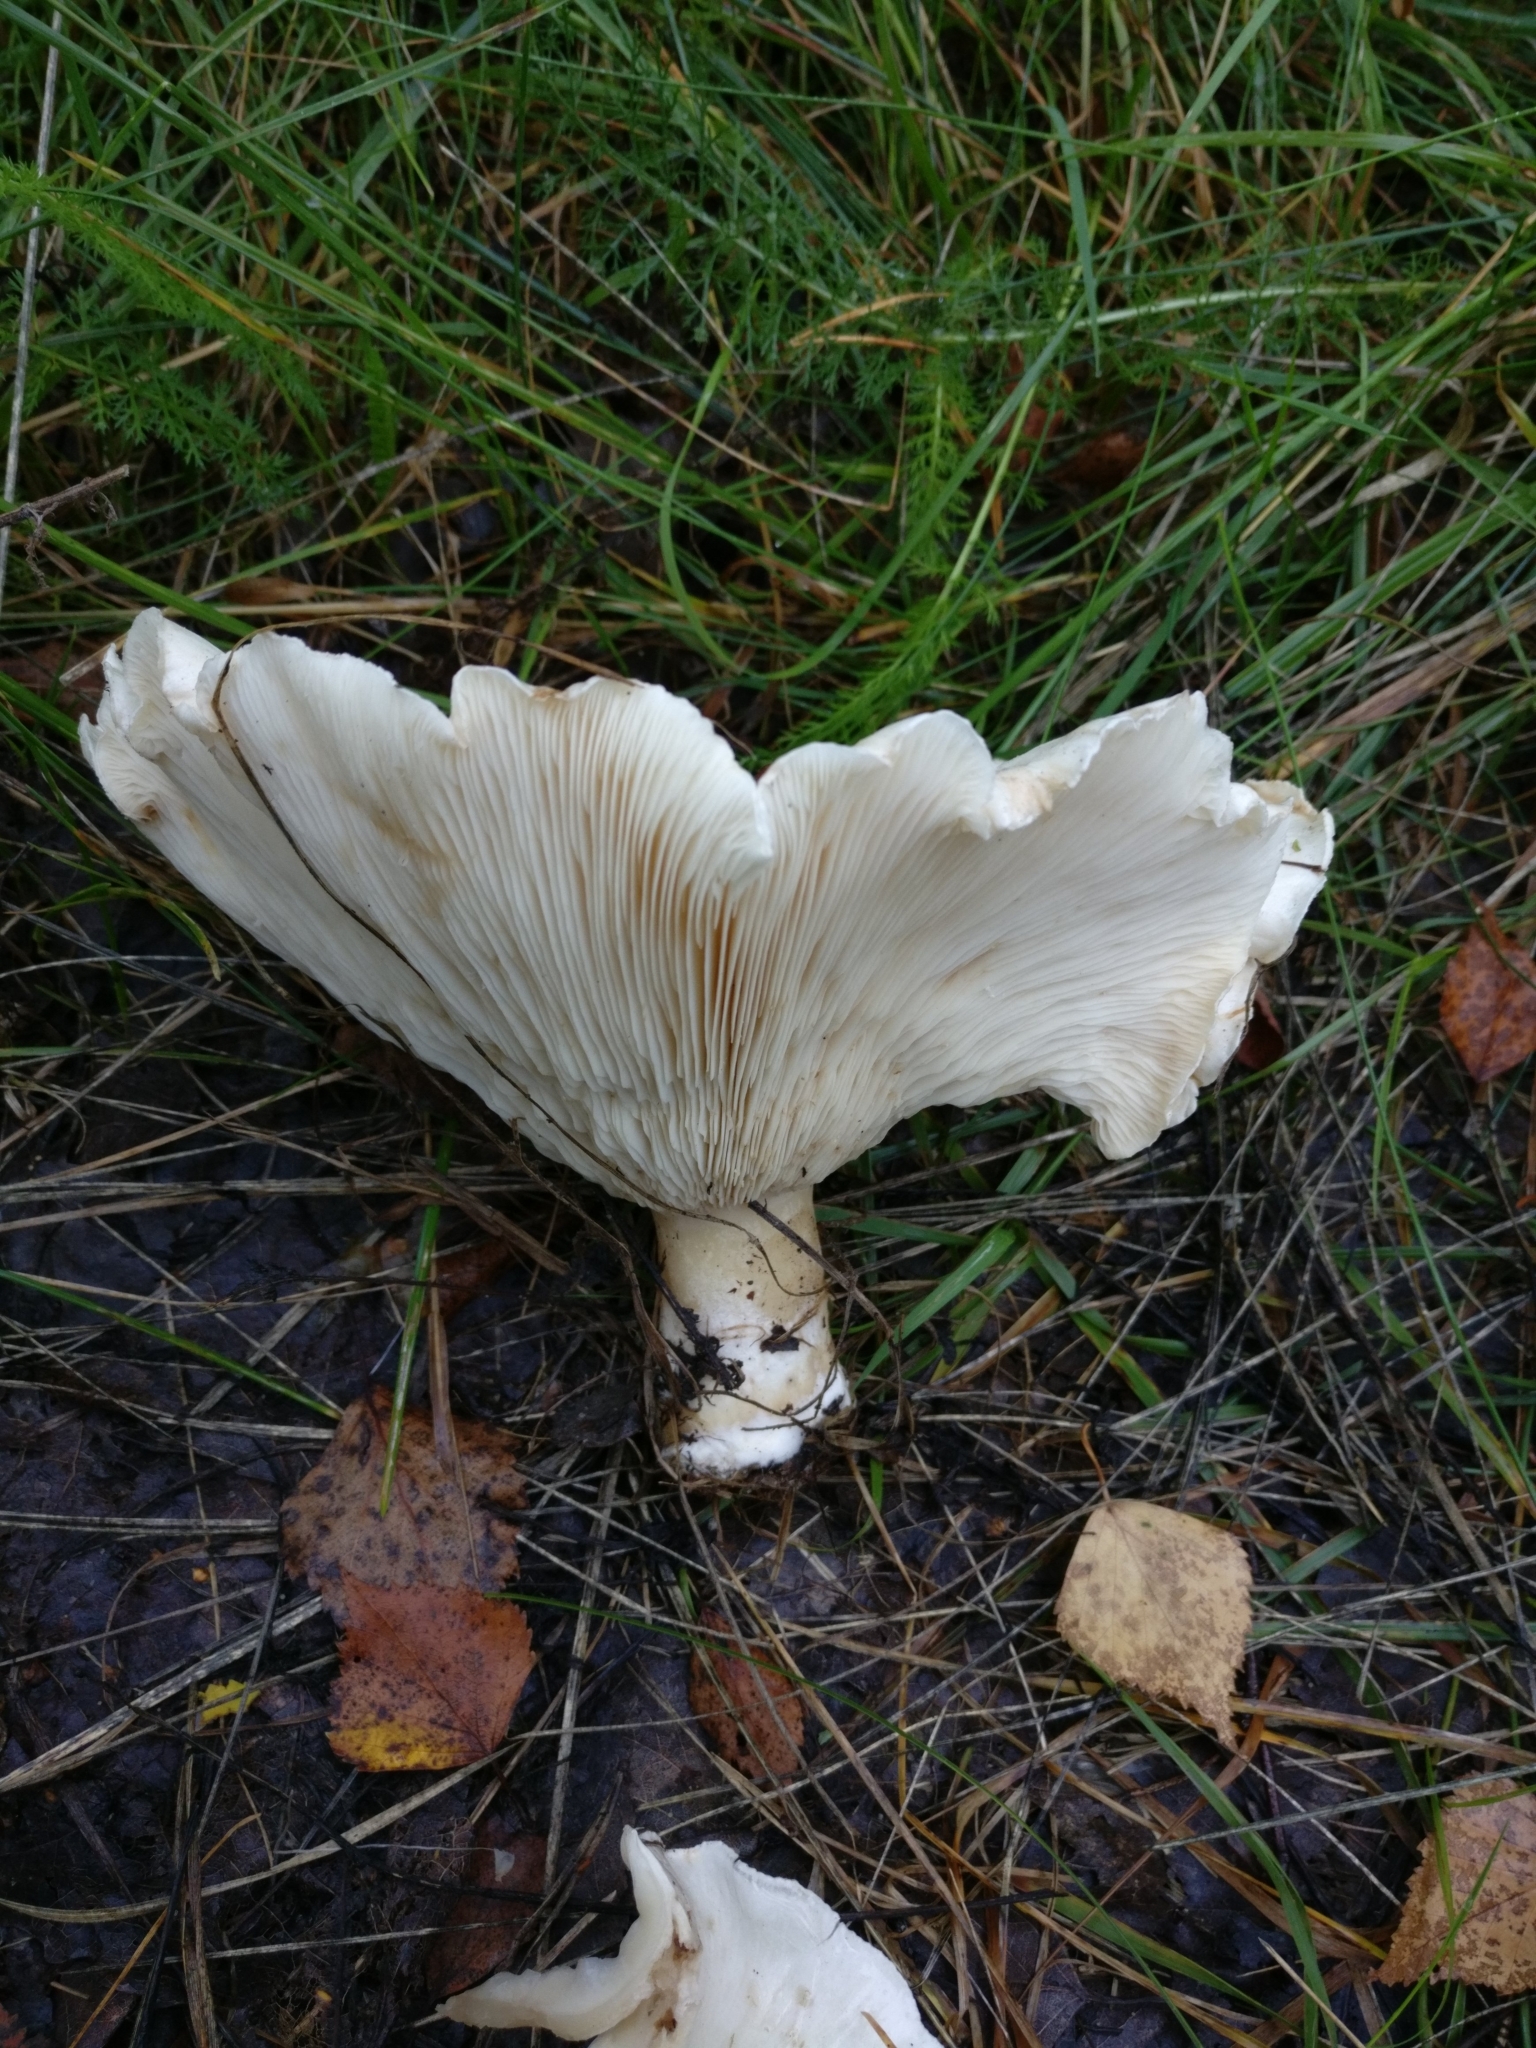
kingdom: Fungi
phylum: Basidiomycota
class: Agaricomycetes
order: Agaricales
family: Tricholomataceae
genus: Aspropaxillus
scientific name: Aspropaxillus giganteus
